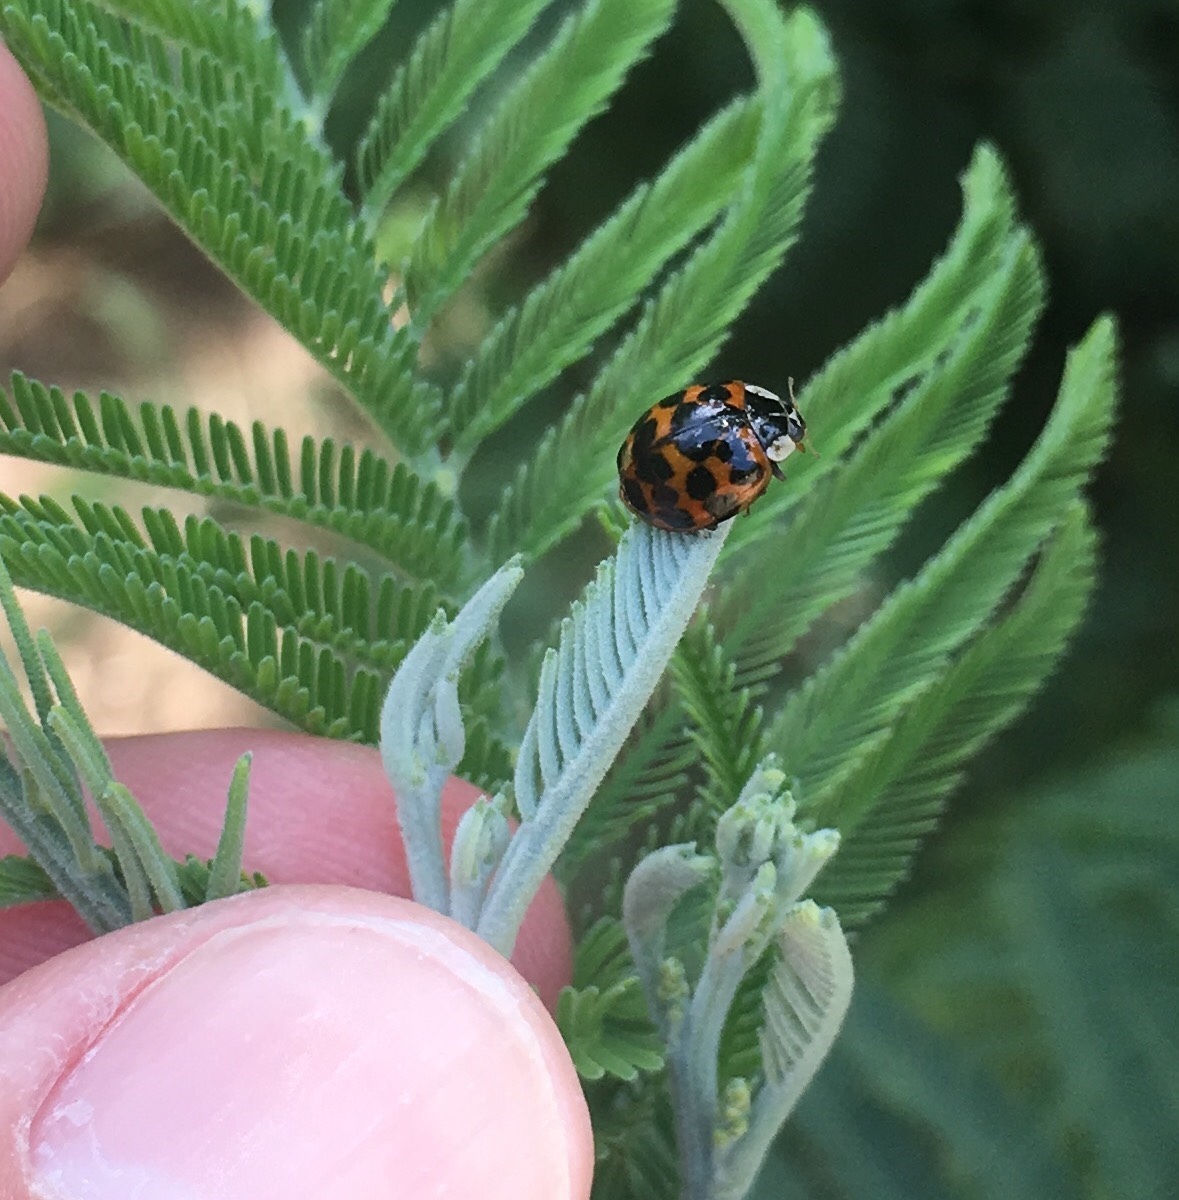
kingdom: Animalia
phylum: Arthropoda
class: Insecta
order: Coleoptera
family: Coccinellidae
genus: Harmonia
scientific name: Harmonia axyridis
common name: Harlequin ladybird
